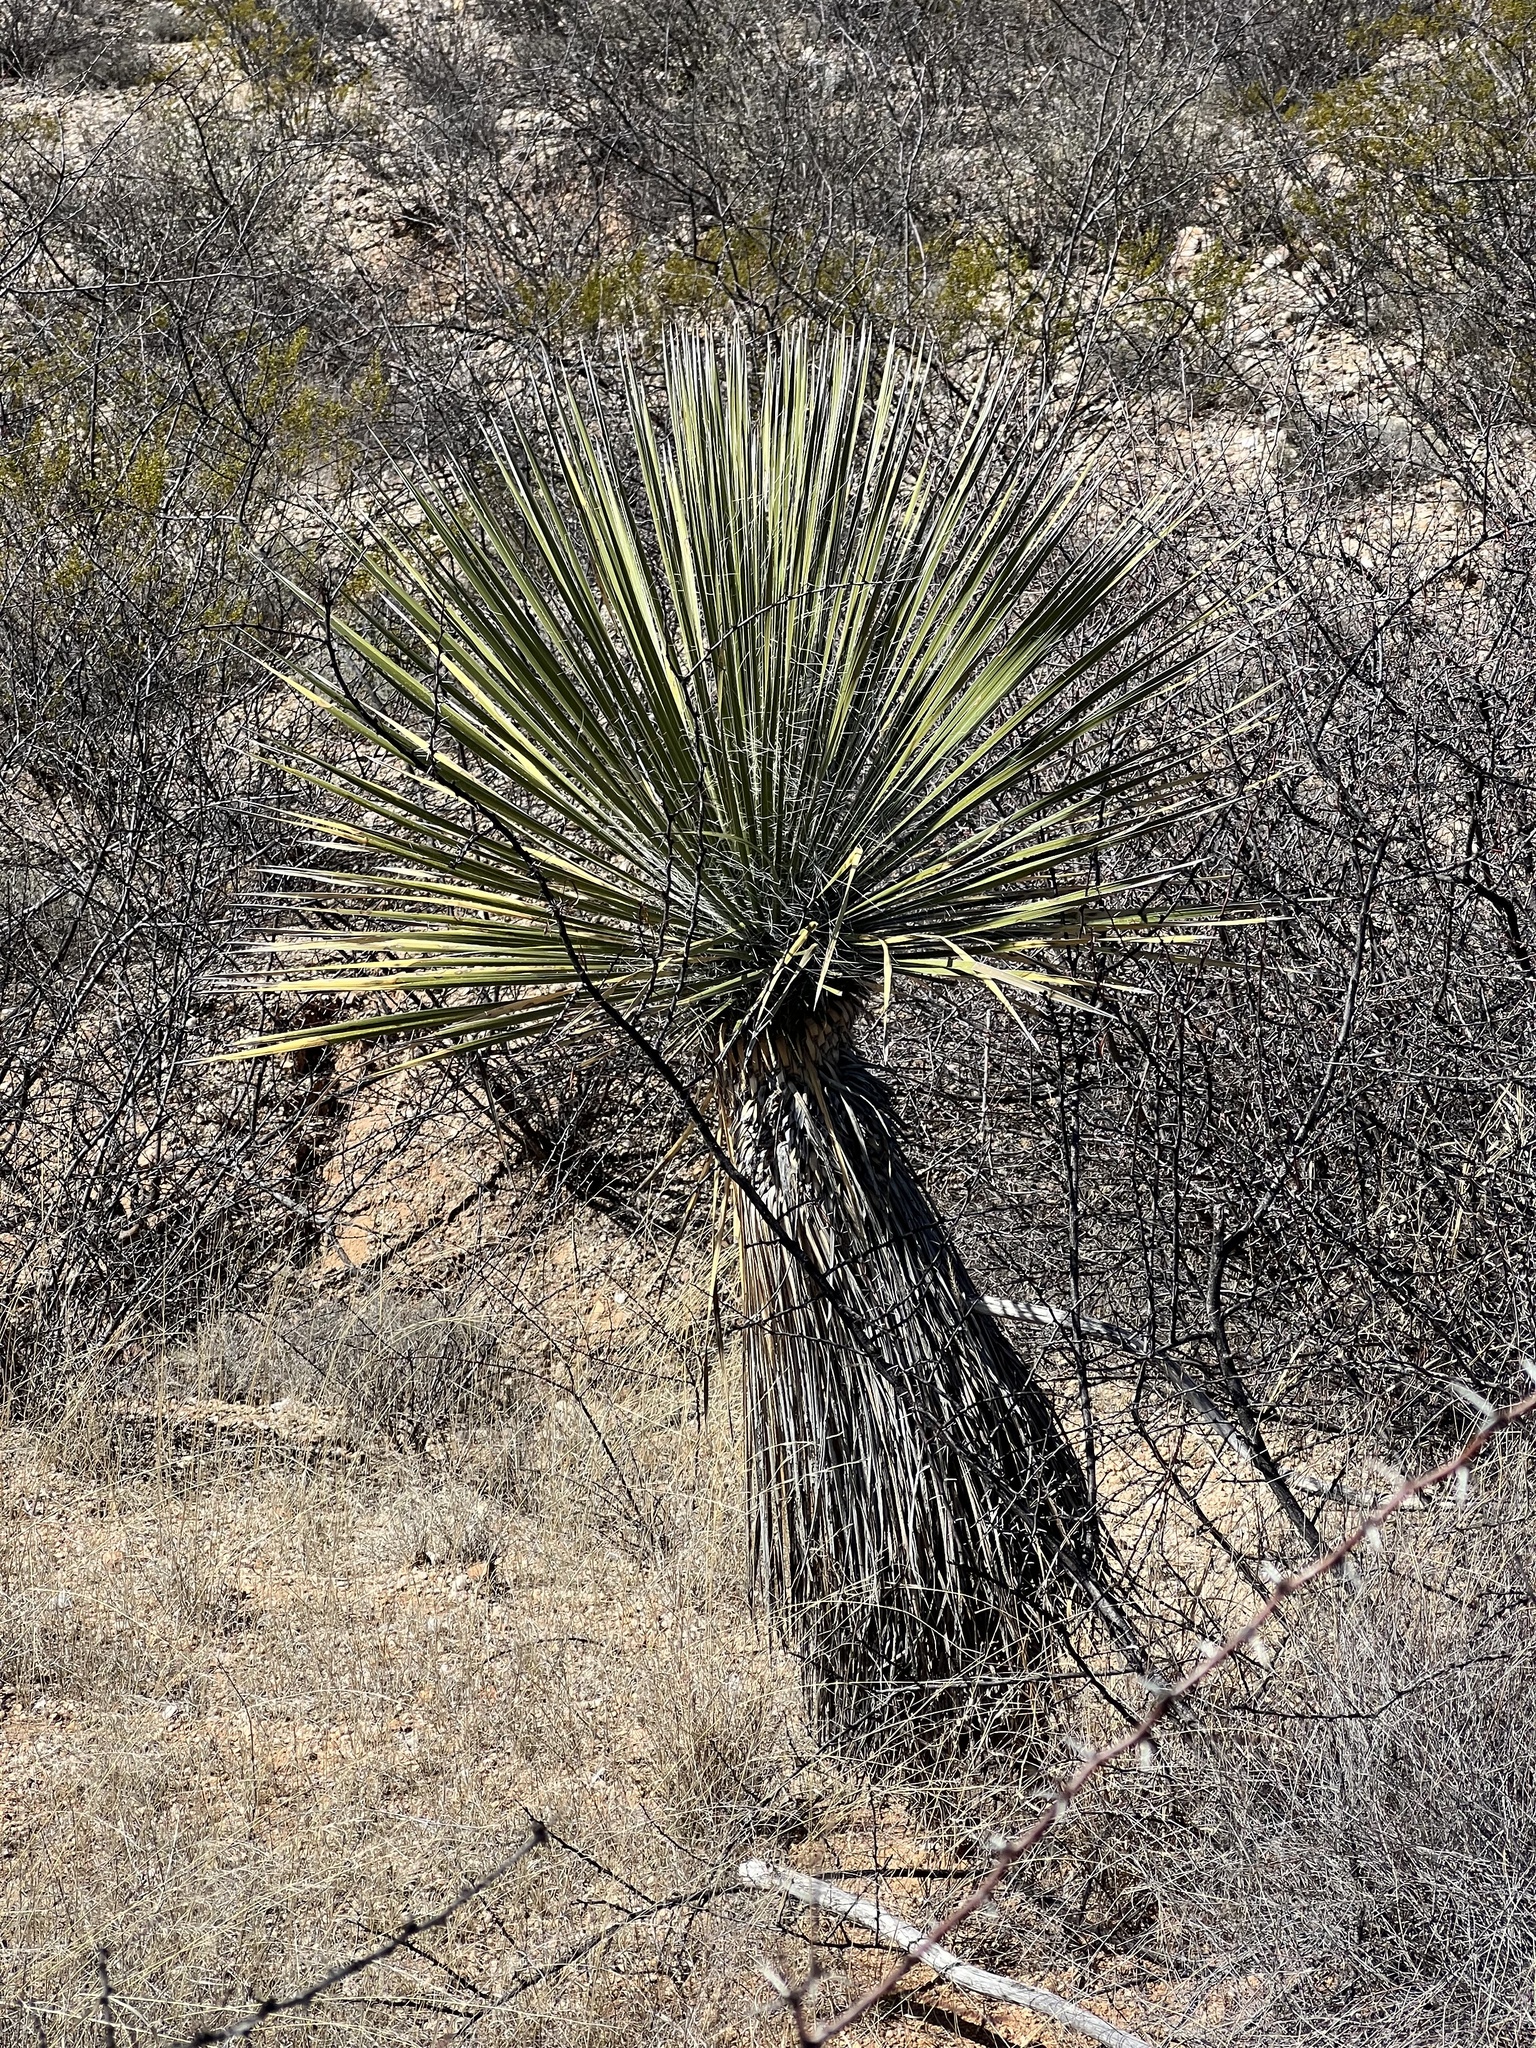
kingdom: Plantae
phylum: Tracheophyta
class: Liliopsida
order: Asparagales
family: Asparagaceae
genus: Yucca
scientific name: Yucca elata
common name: Palmella
